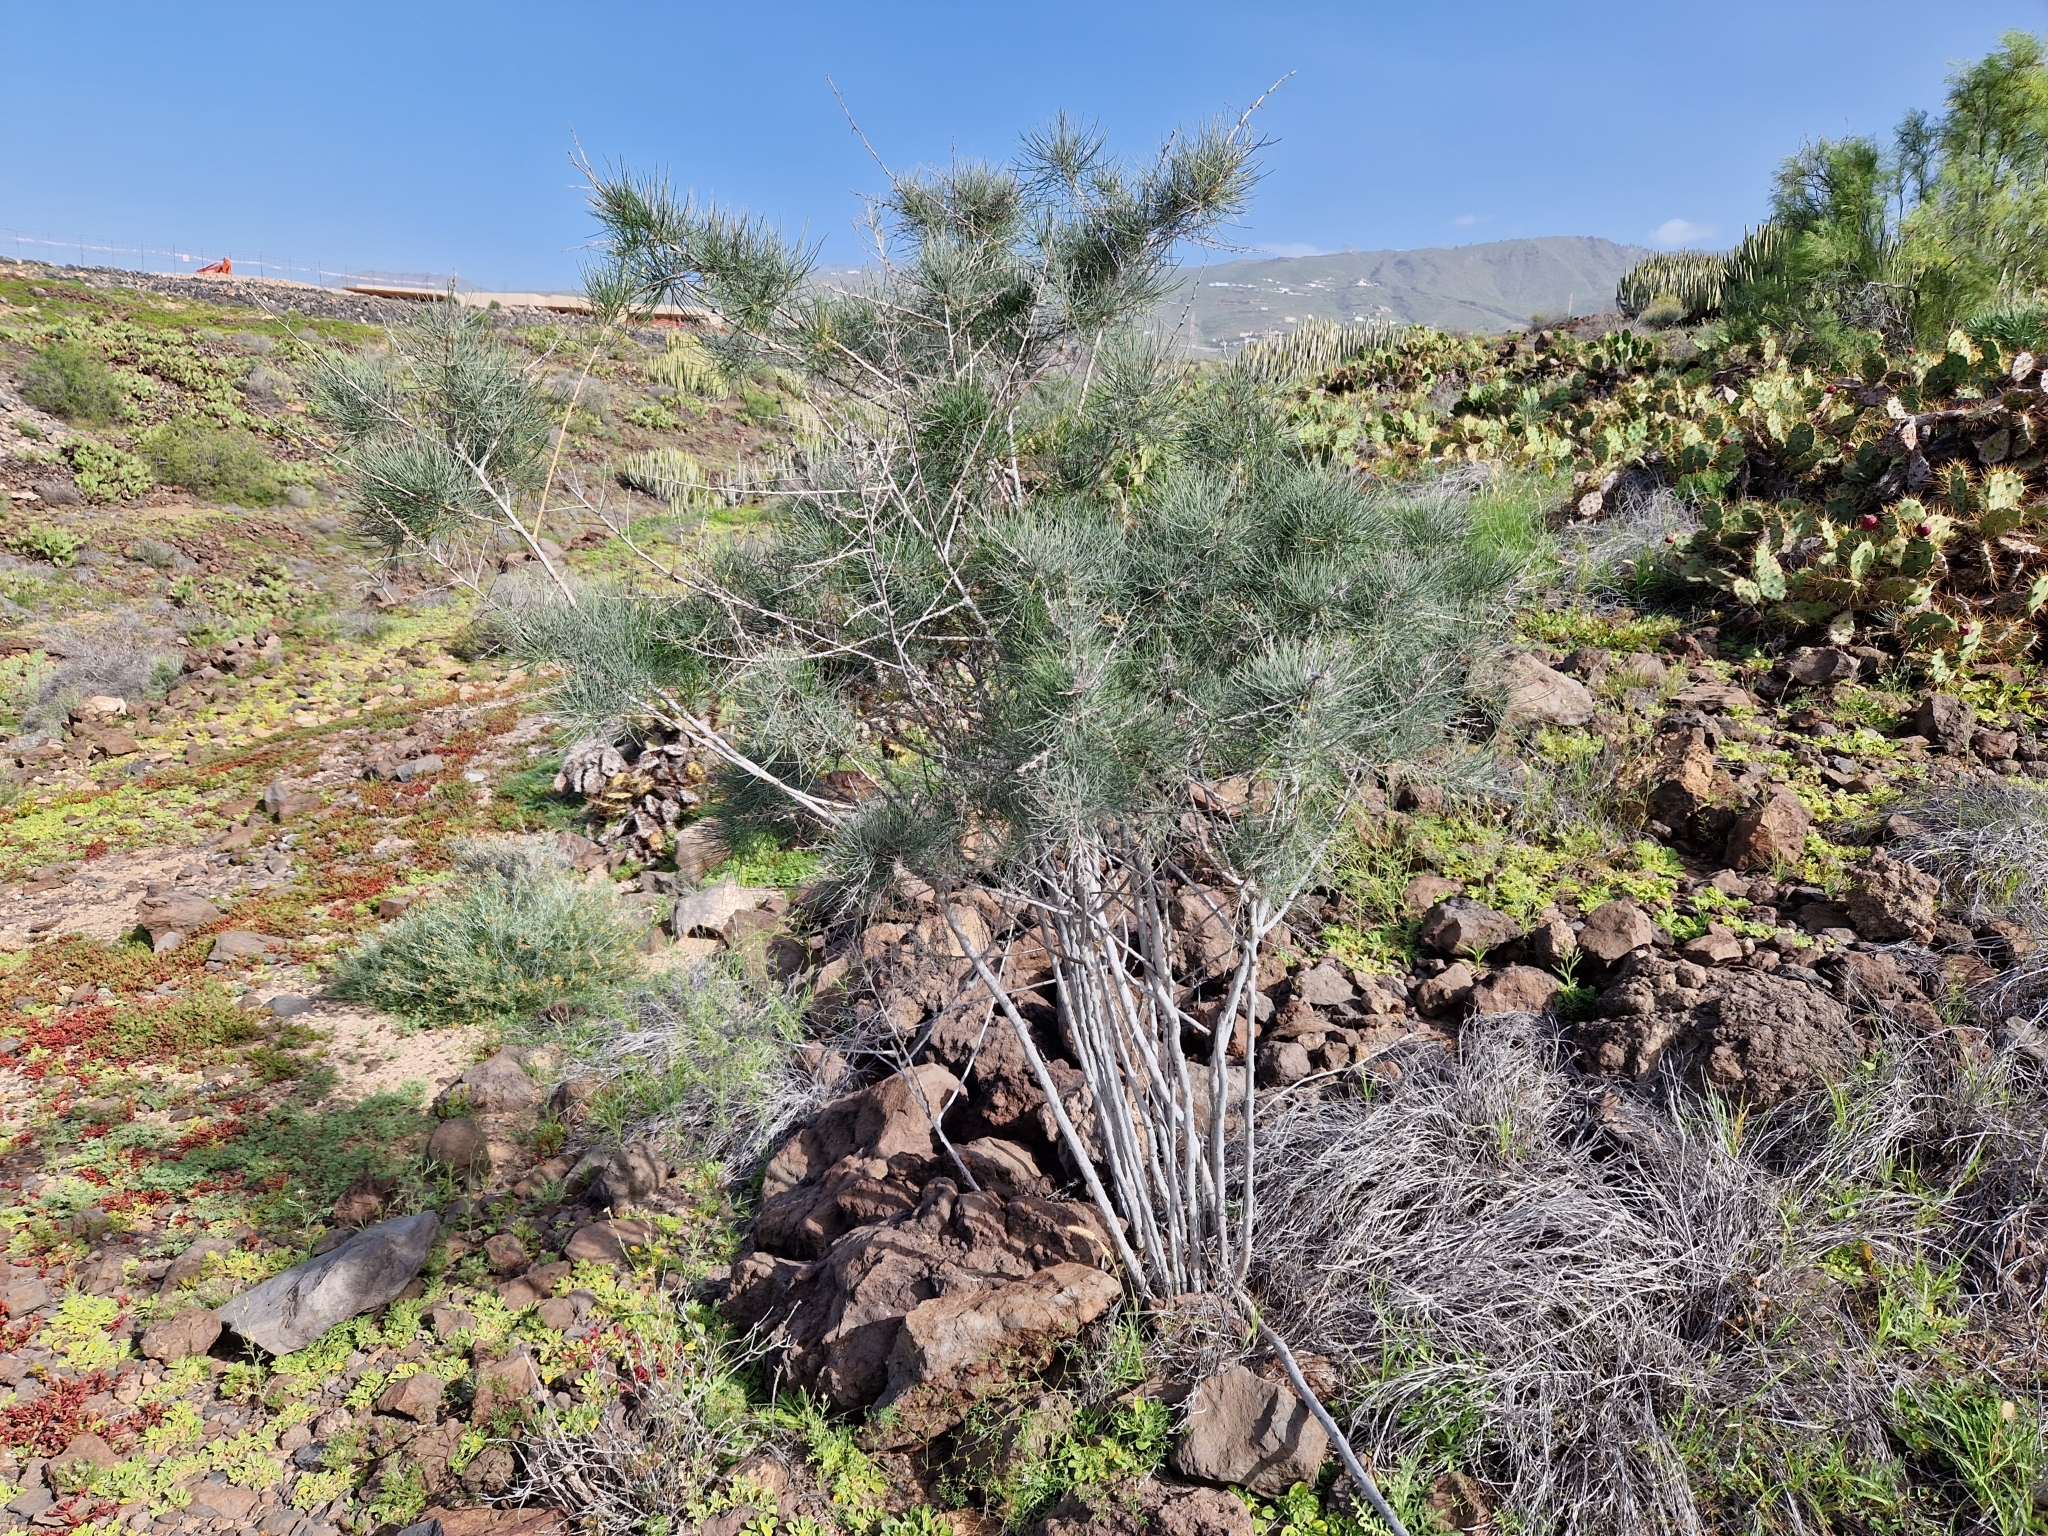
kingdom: Plantae
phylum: Tracheophyta
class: Liliopsida
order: Asparagales
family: Asparagaceae
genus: Asparagus
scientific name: Asparagus arborescens
